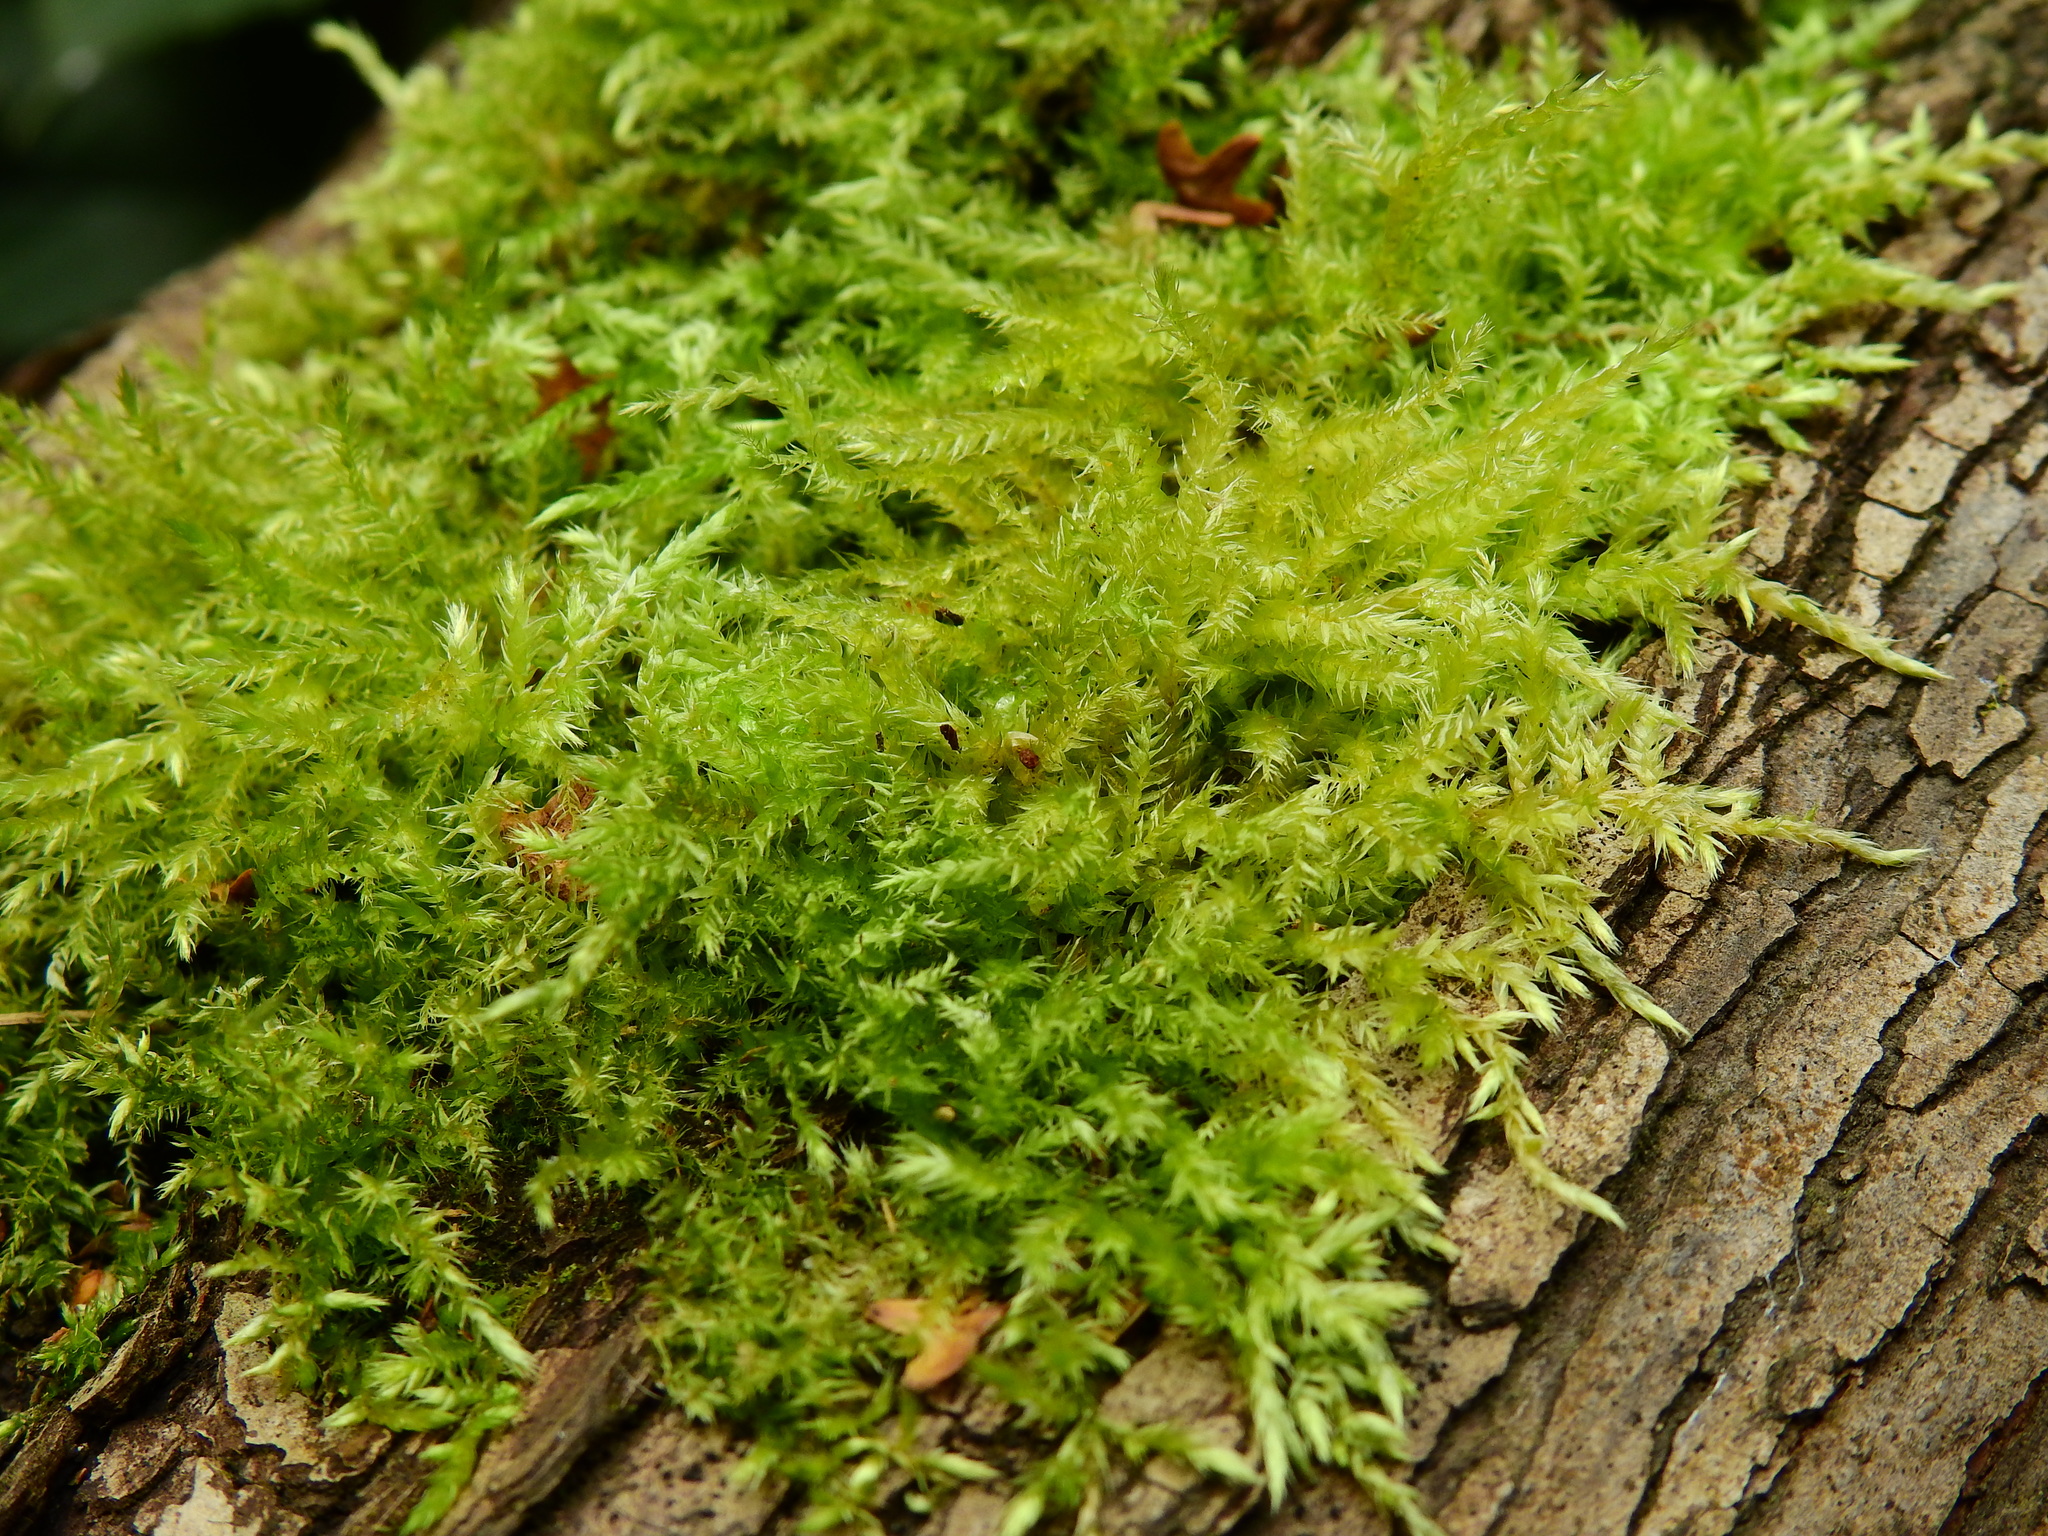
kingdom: Plantae
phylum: Bryophyta
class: Bryopsida
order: Hypnales
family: Brachytheciaceae
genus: Brachythecium
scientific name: Brachythecium rutabulum
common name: Rough-stalked feather-moss
